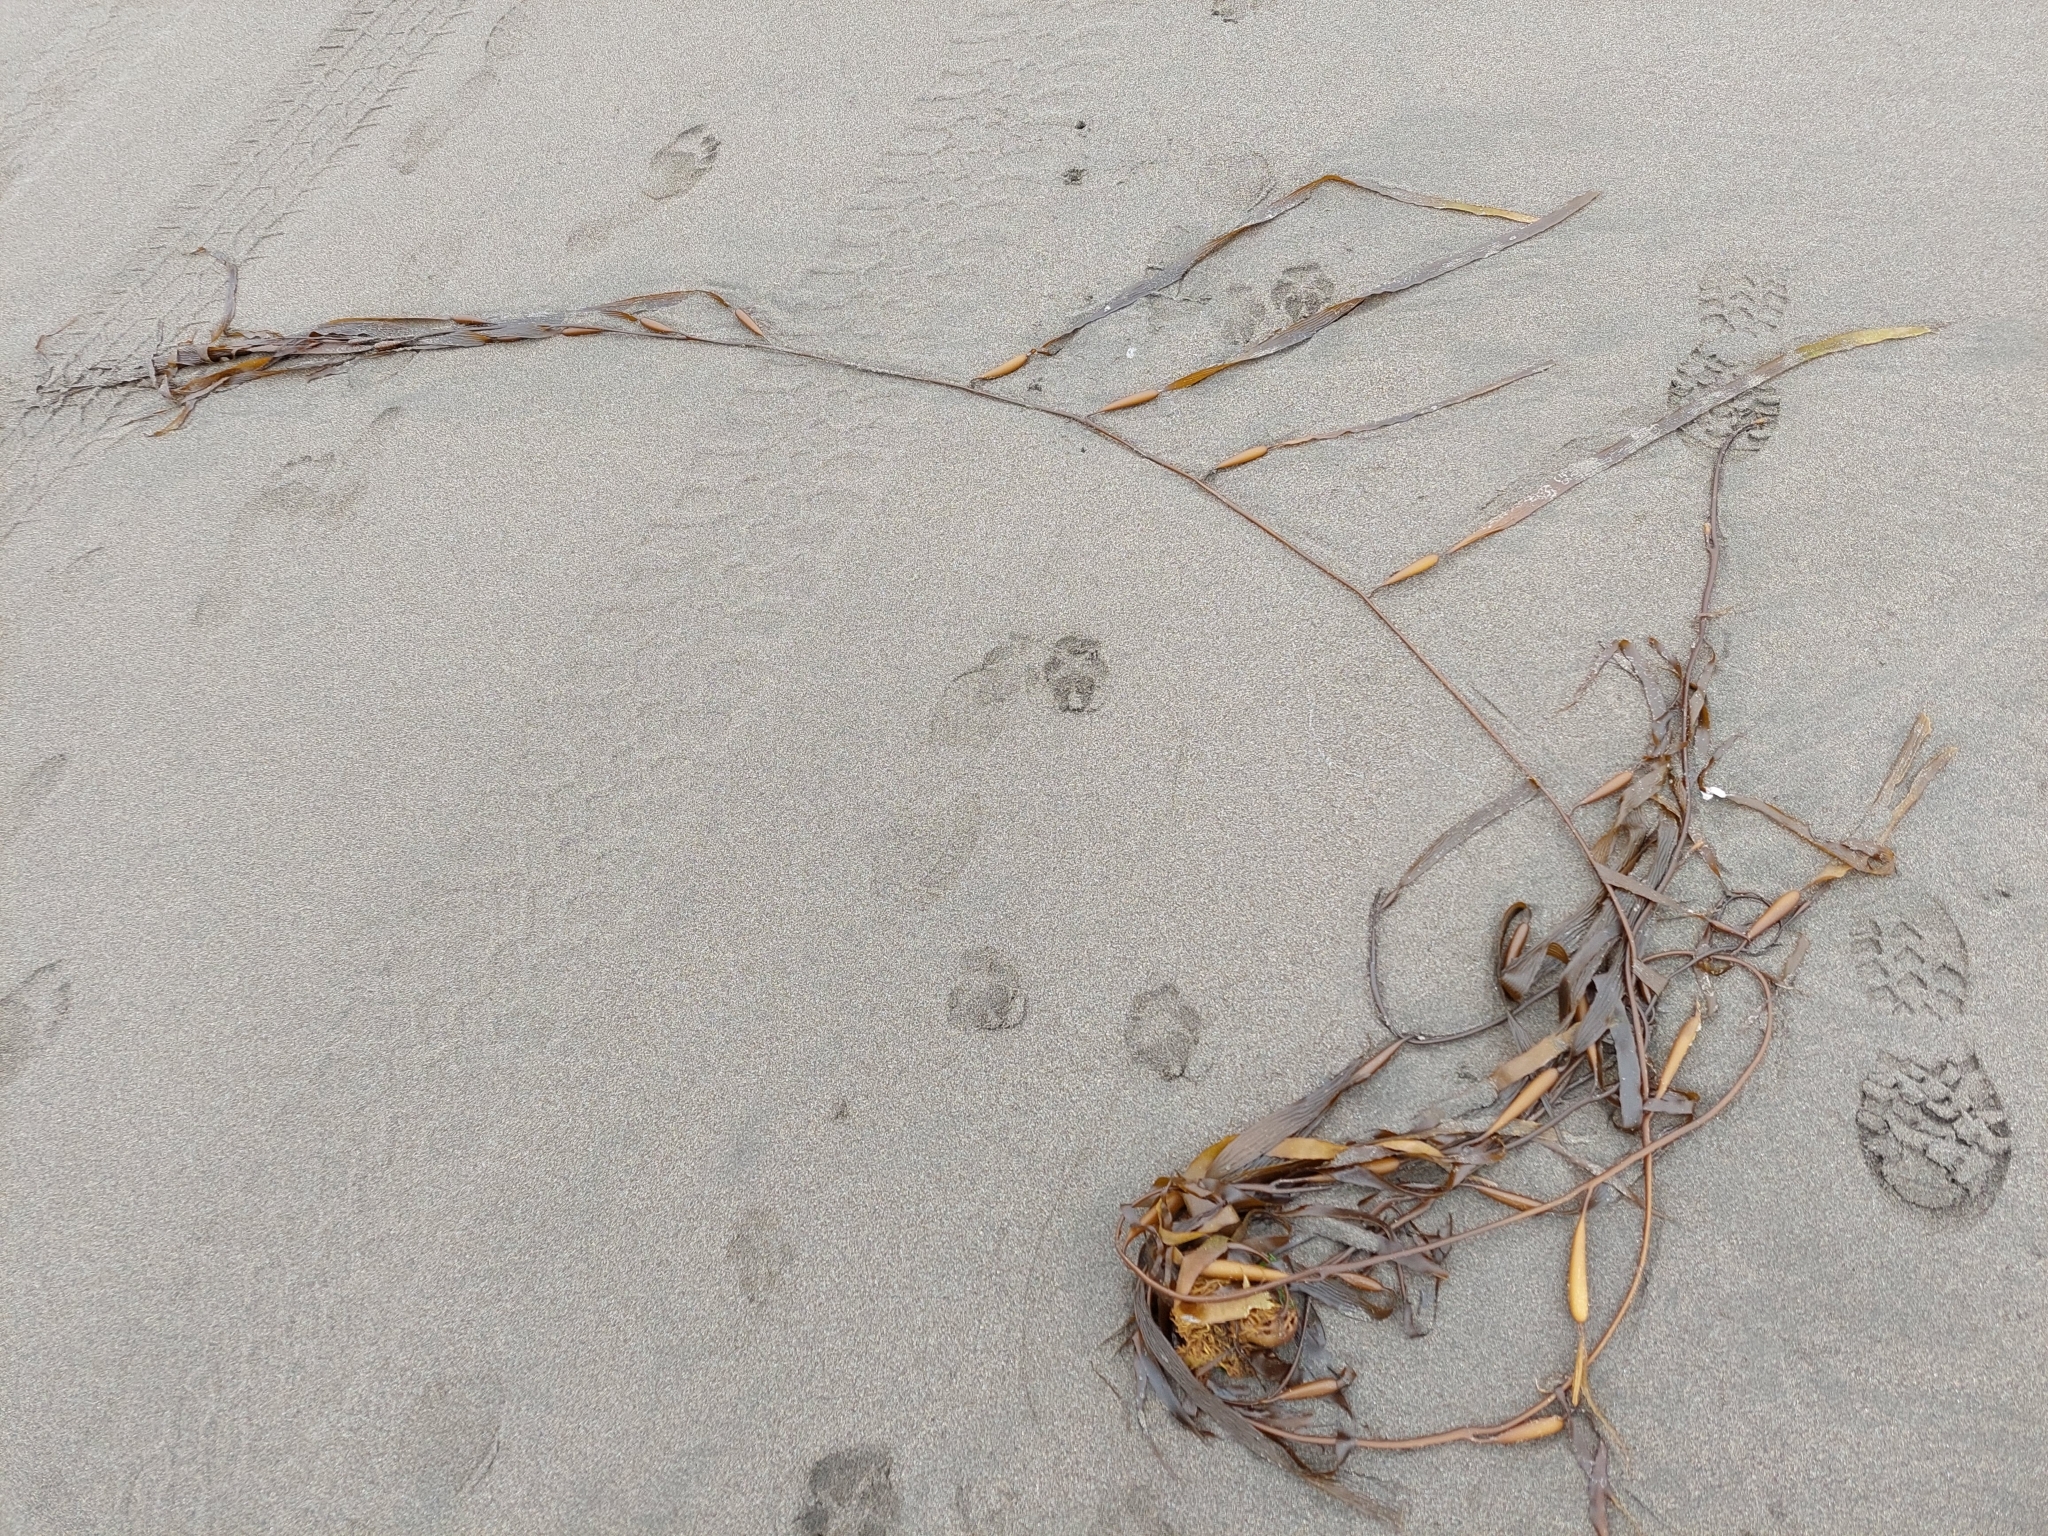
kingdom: Chromista
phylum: Ochrophyta
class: Phaeophyceae
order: Laminariales
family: Laminariaceae
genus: Macrocystis
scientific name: Macrocystis pyrifera
